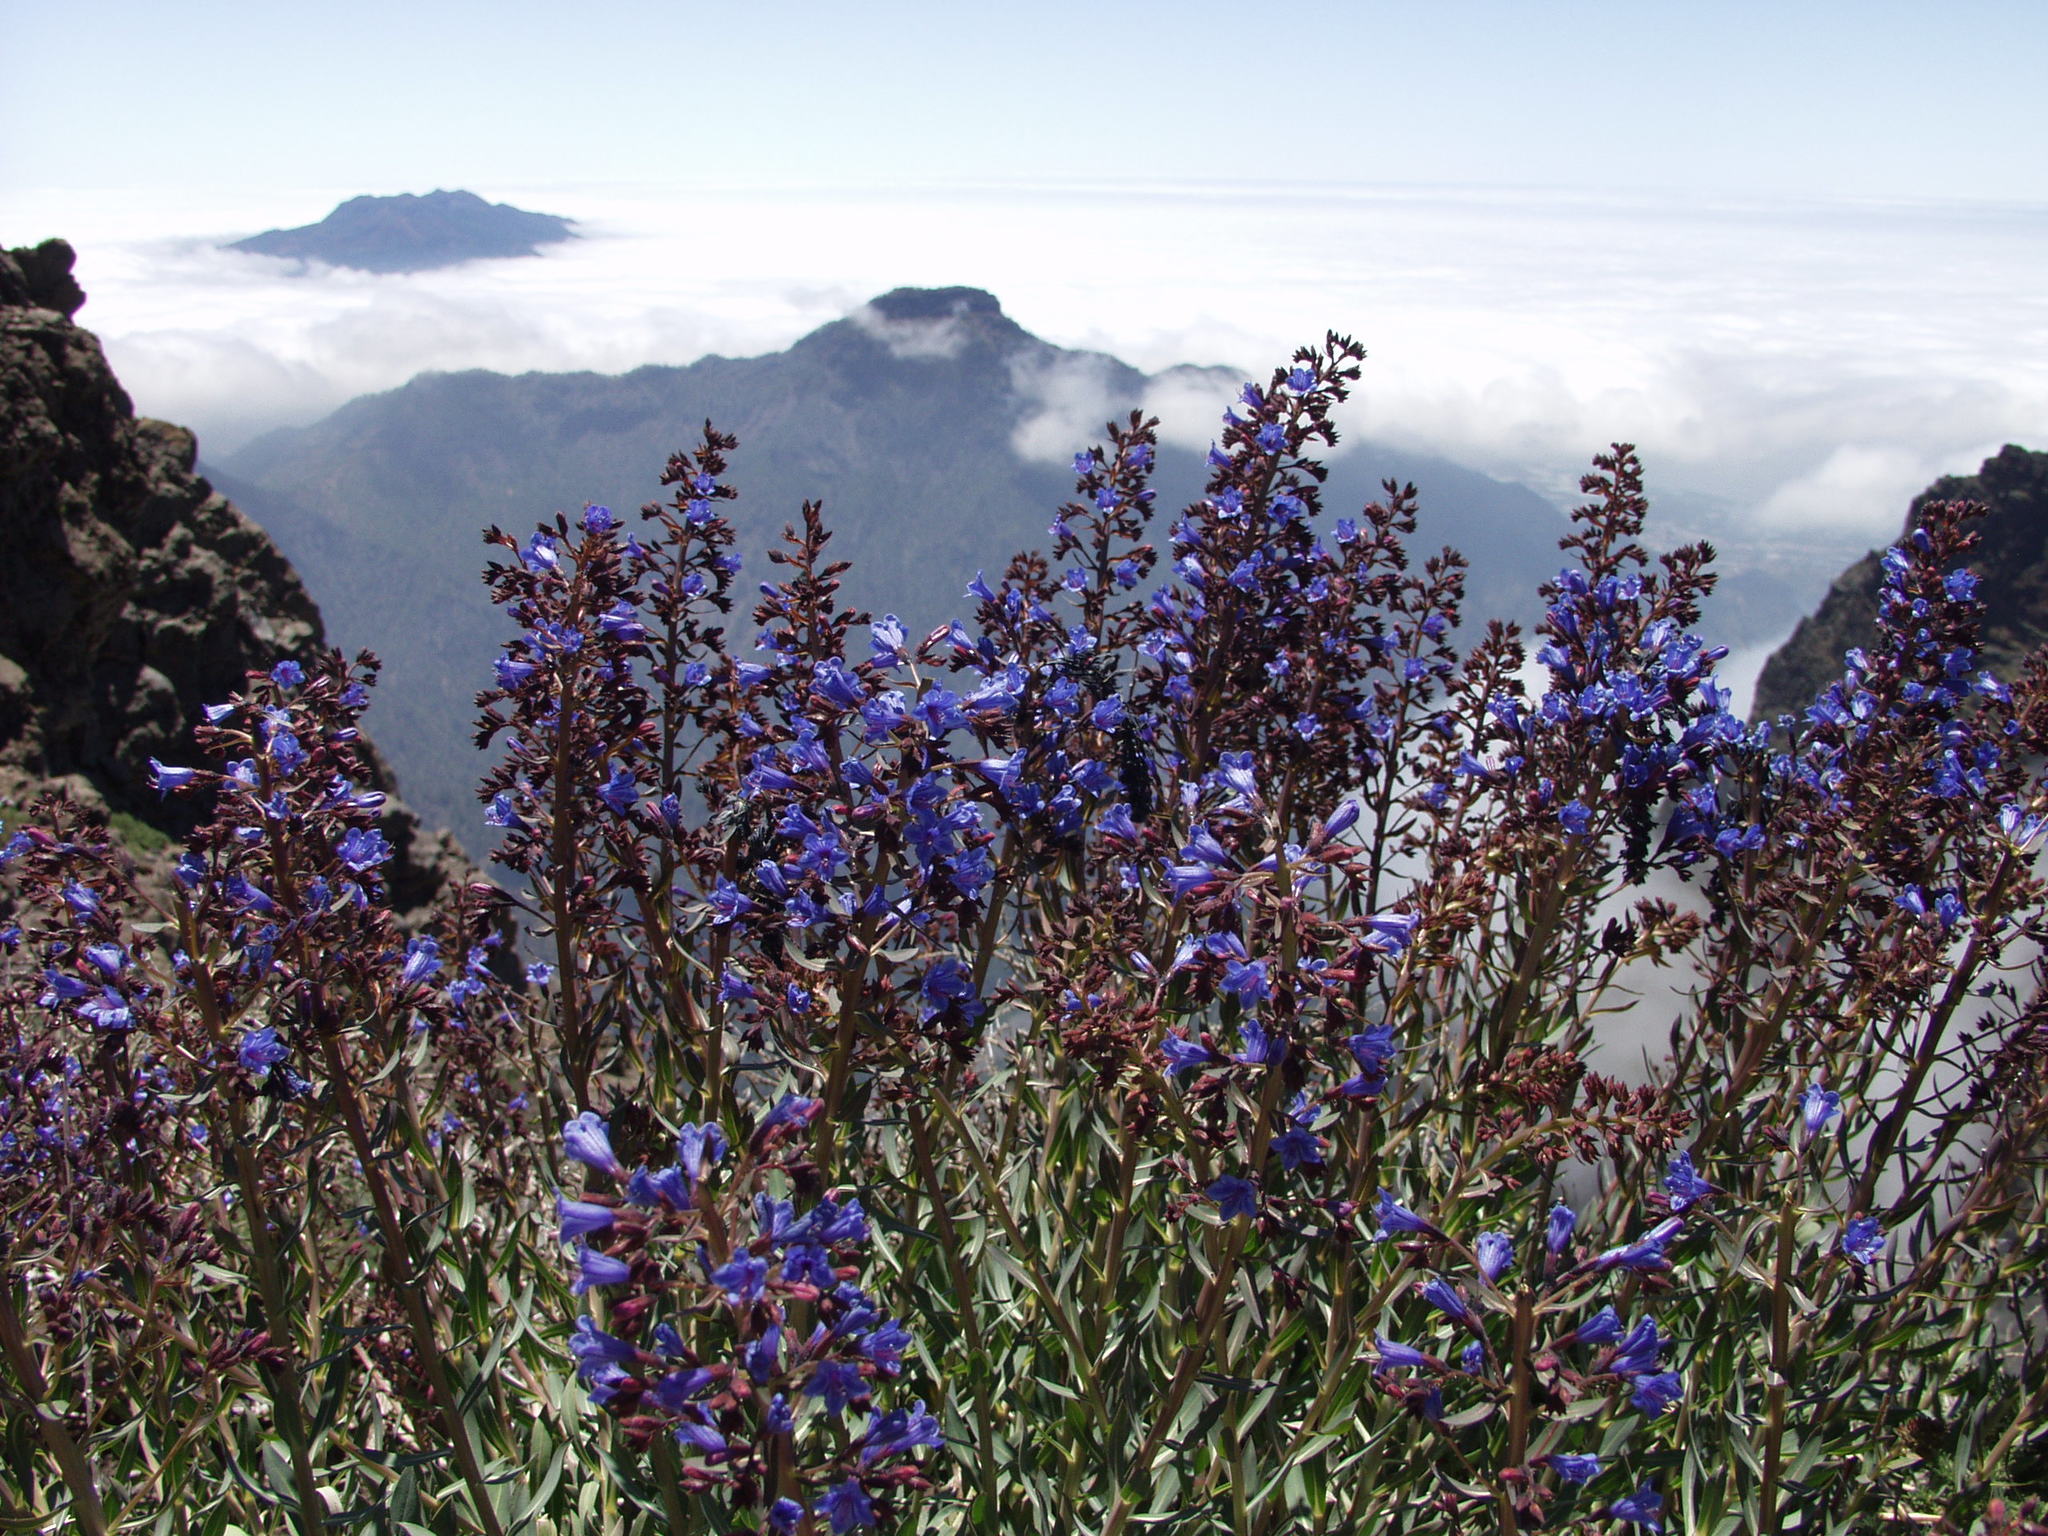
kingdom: Plantae
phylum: Tracheophyta
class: Magnoliopsida
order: Boraginales
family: Boraginaceae
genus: Echium
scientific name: Echium thyrsiflorum
